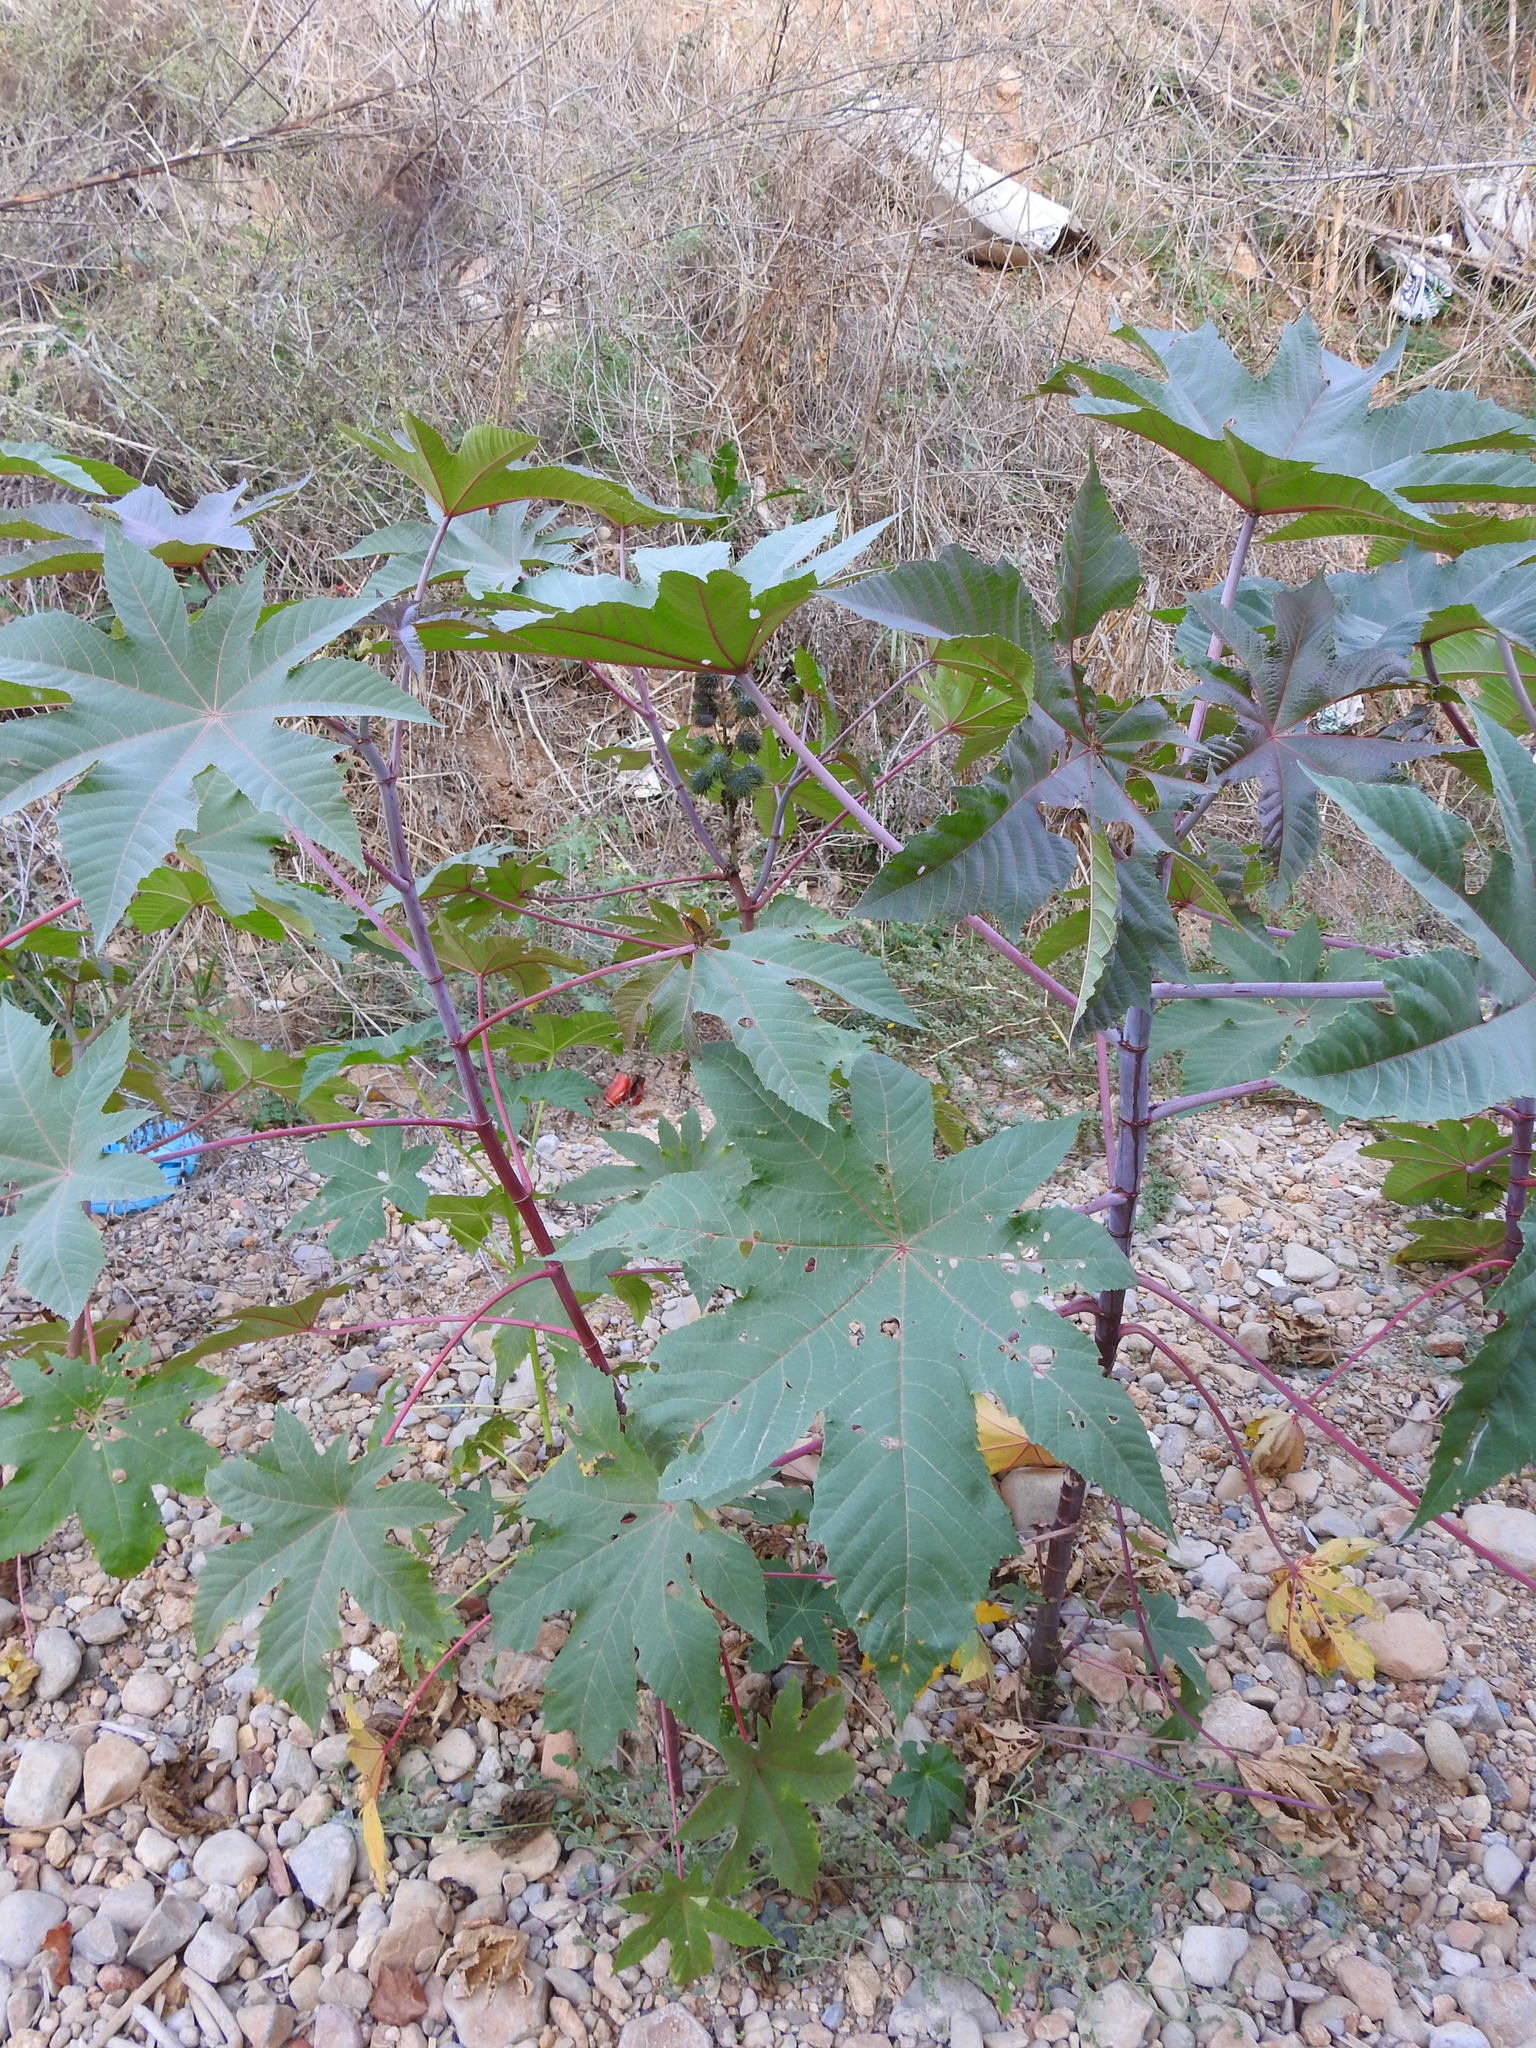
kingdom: Plantae
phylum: Tracheophyta
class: Magnoliopsida
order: Malpighiales
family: Euphorbiaceae
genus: Ricinus
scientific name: Ricinus communis
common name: Castor-oil-plant
